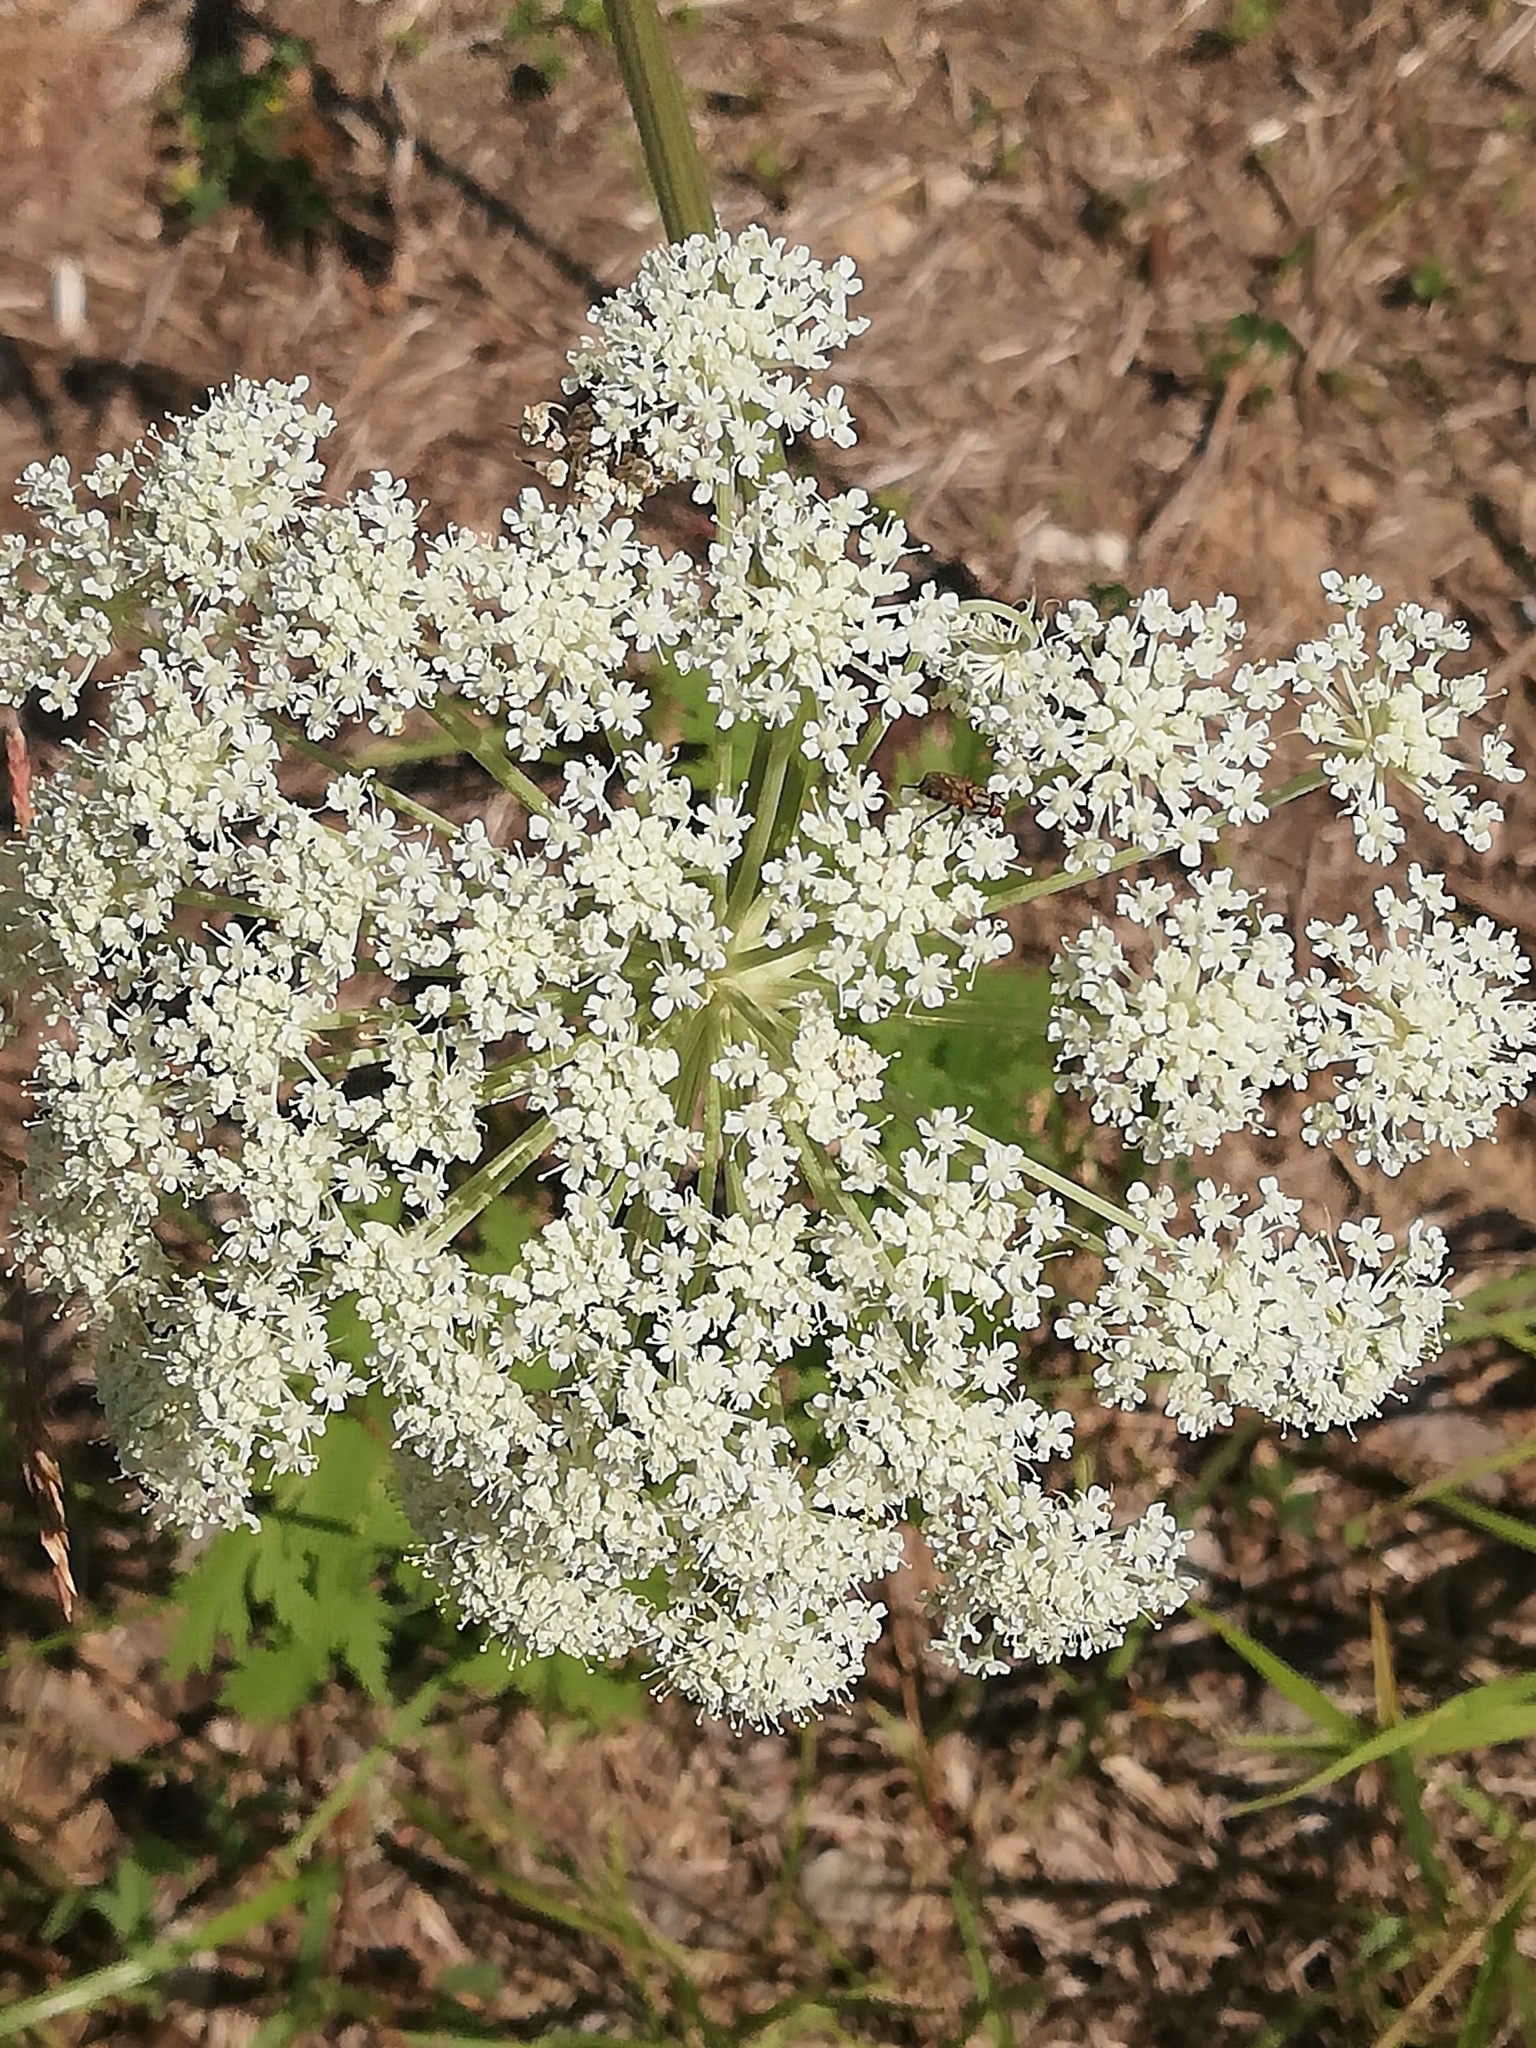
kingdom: Plantae
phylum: Tracheophyta
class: Magnoliopsida
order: Apiales
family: Apiaceae
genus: Seseli
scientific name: Seseli libanotis
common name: Mooncarrot
